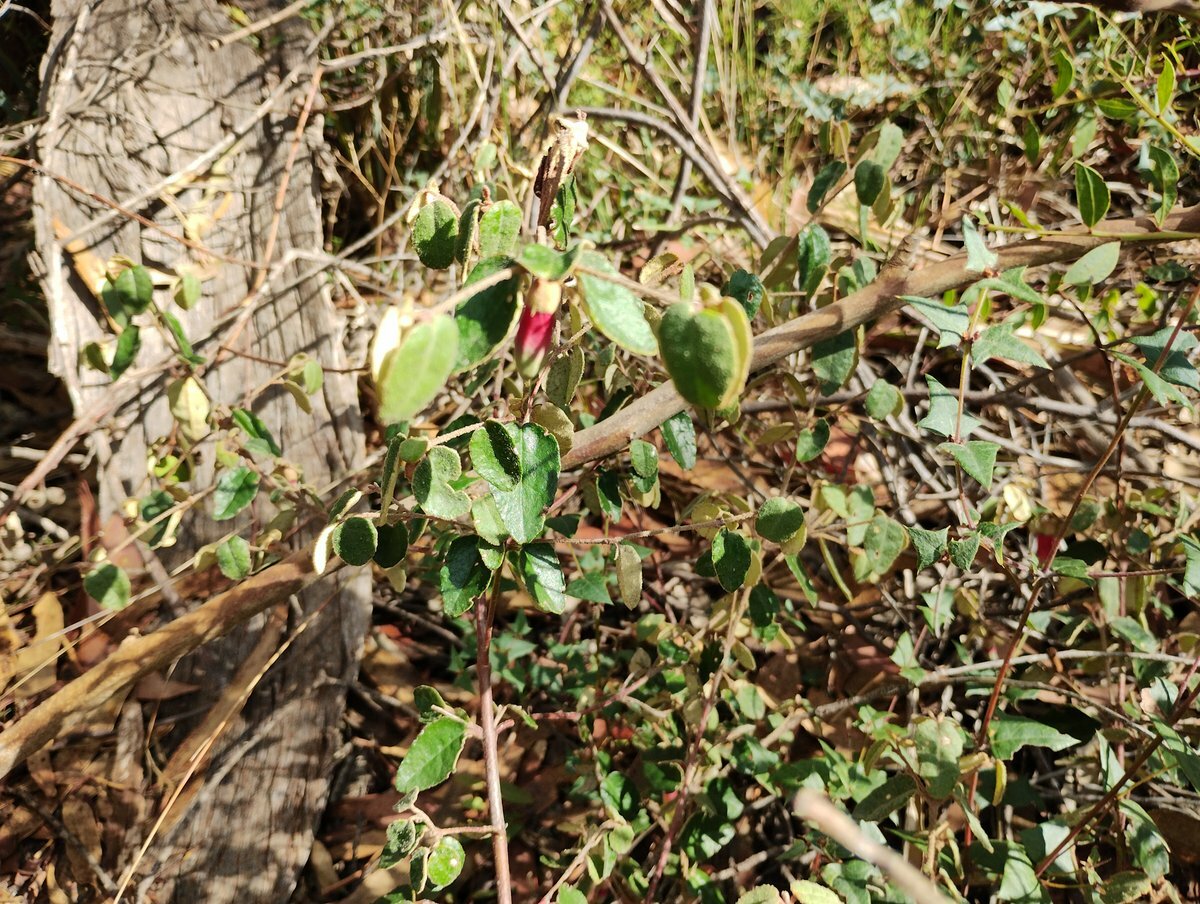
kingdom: Plantae
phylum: Tracheophyta
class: Magnoliopsida
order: Sapindales
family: Rutaceae
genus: Correa
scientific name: Correa reflexa
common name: Common correa
